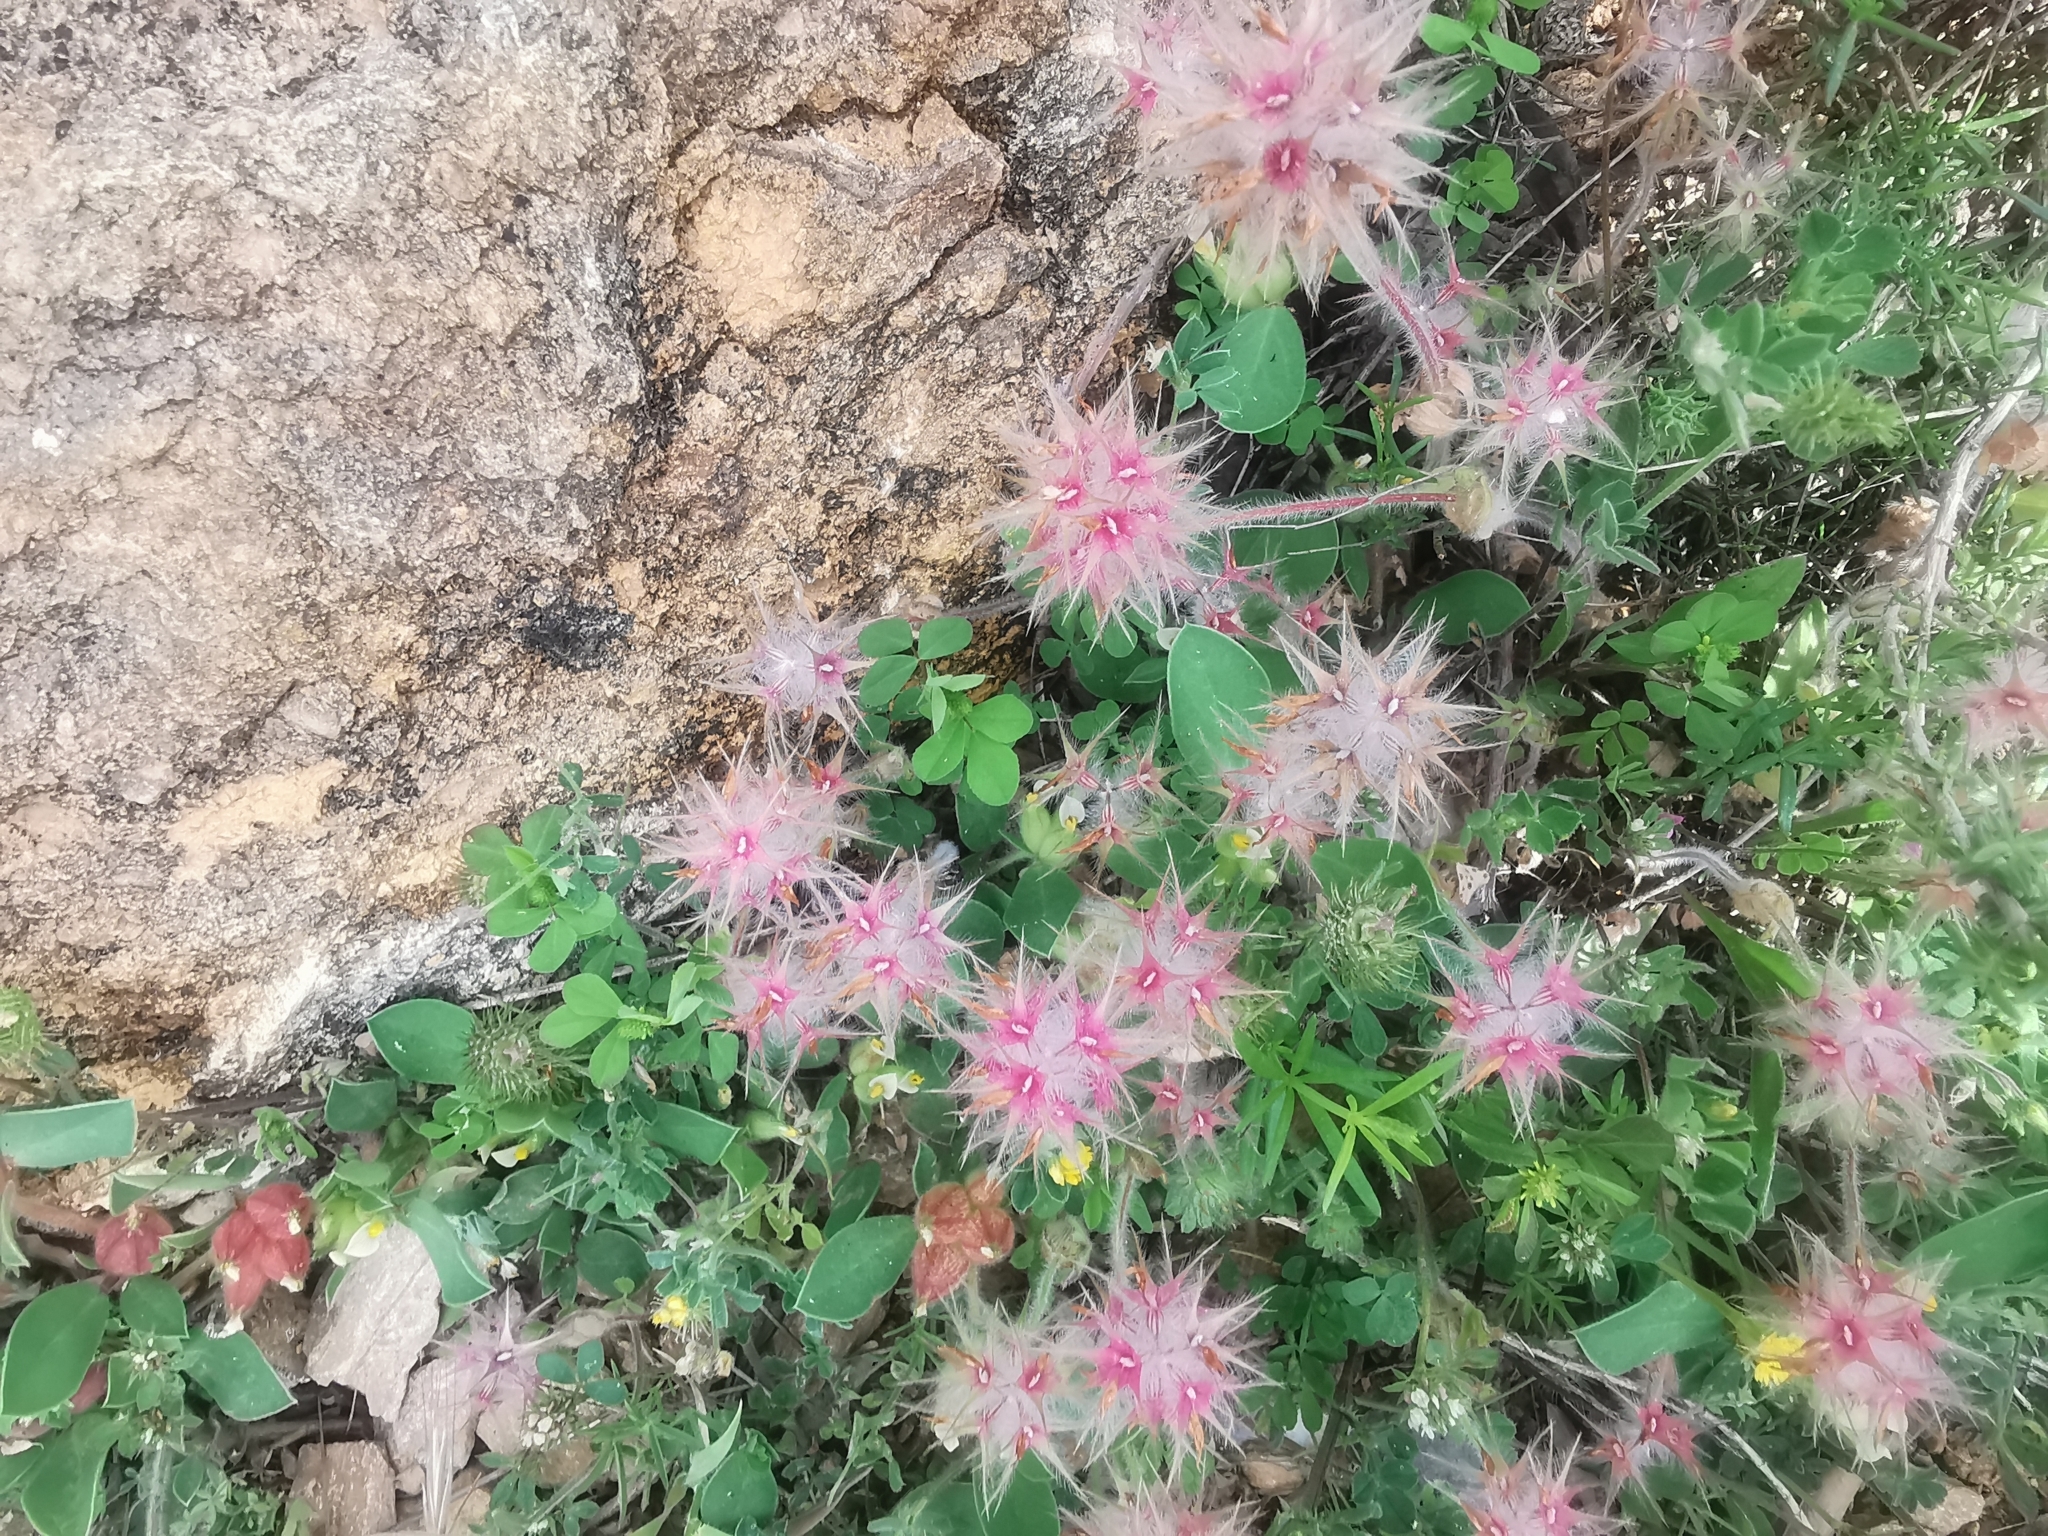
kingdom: Plantae
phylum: Tracheophyta
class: Magnoliopsida
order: Fabales
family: Fabaceae
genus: Trifolium
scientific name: Trifolium stellatum
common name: Starry clover
